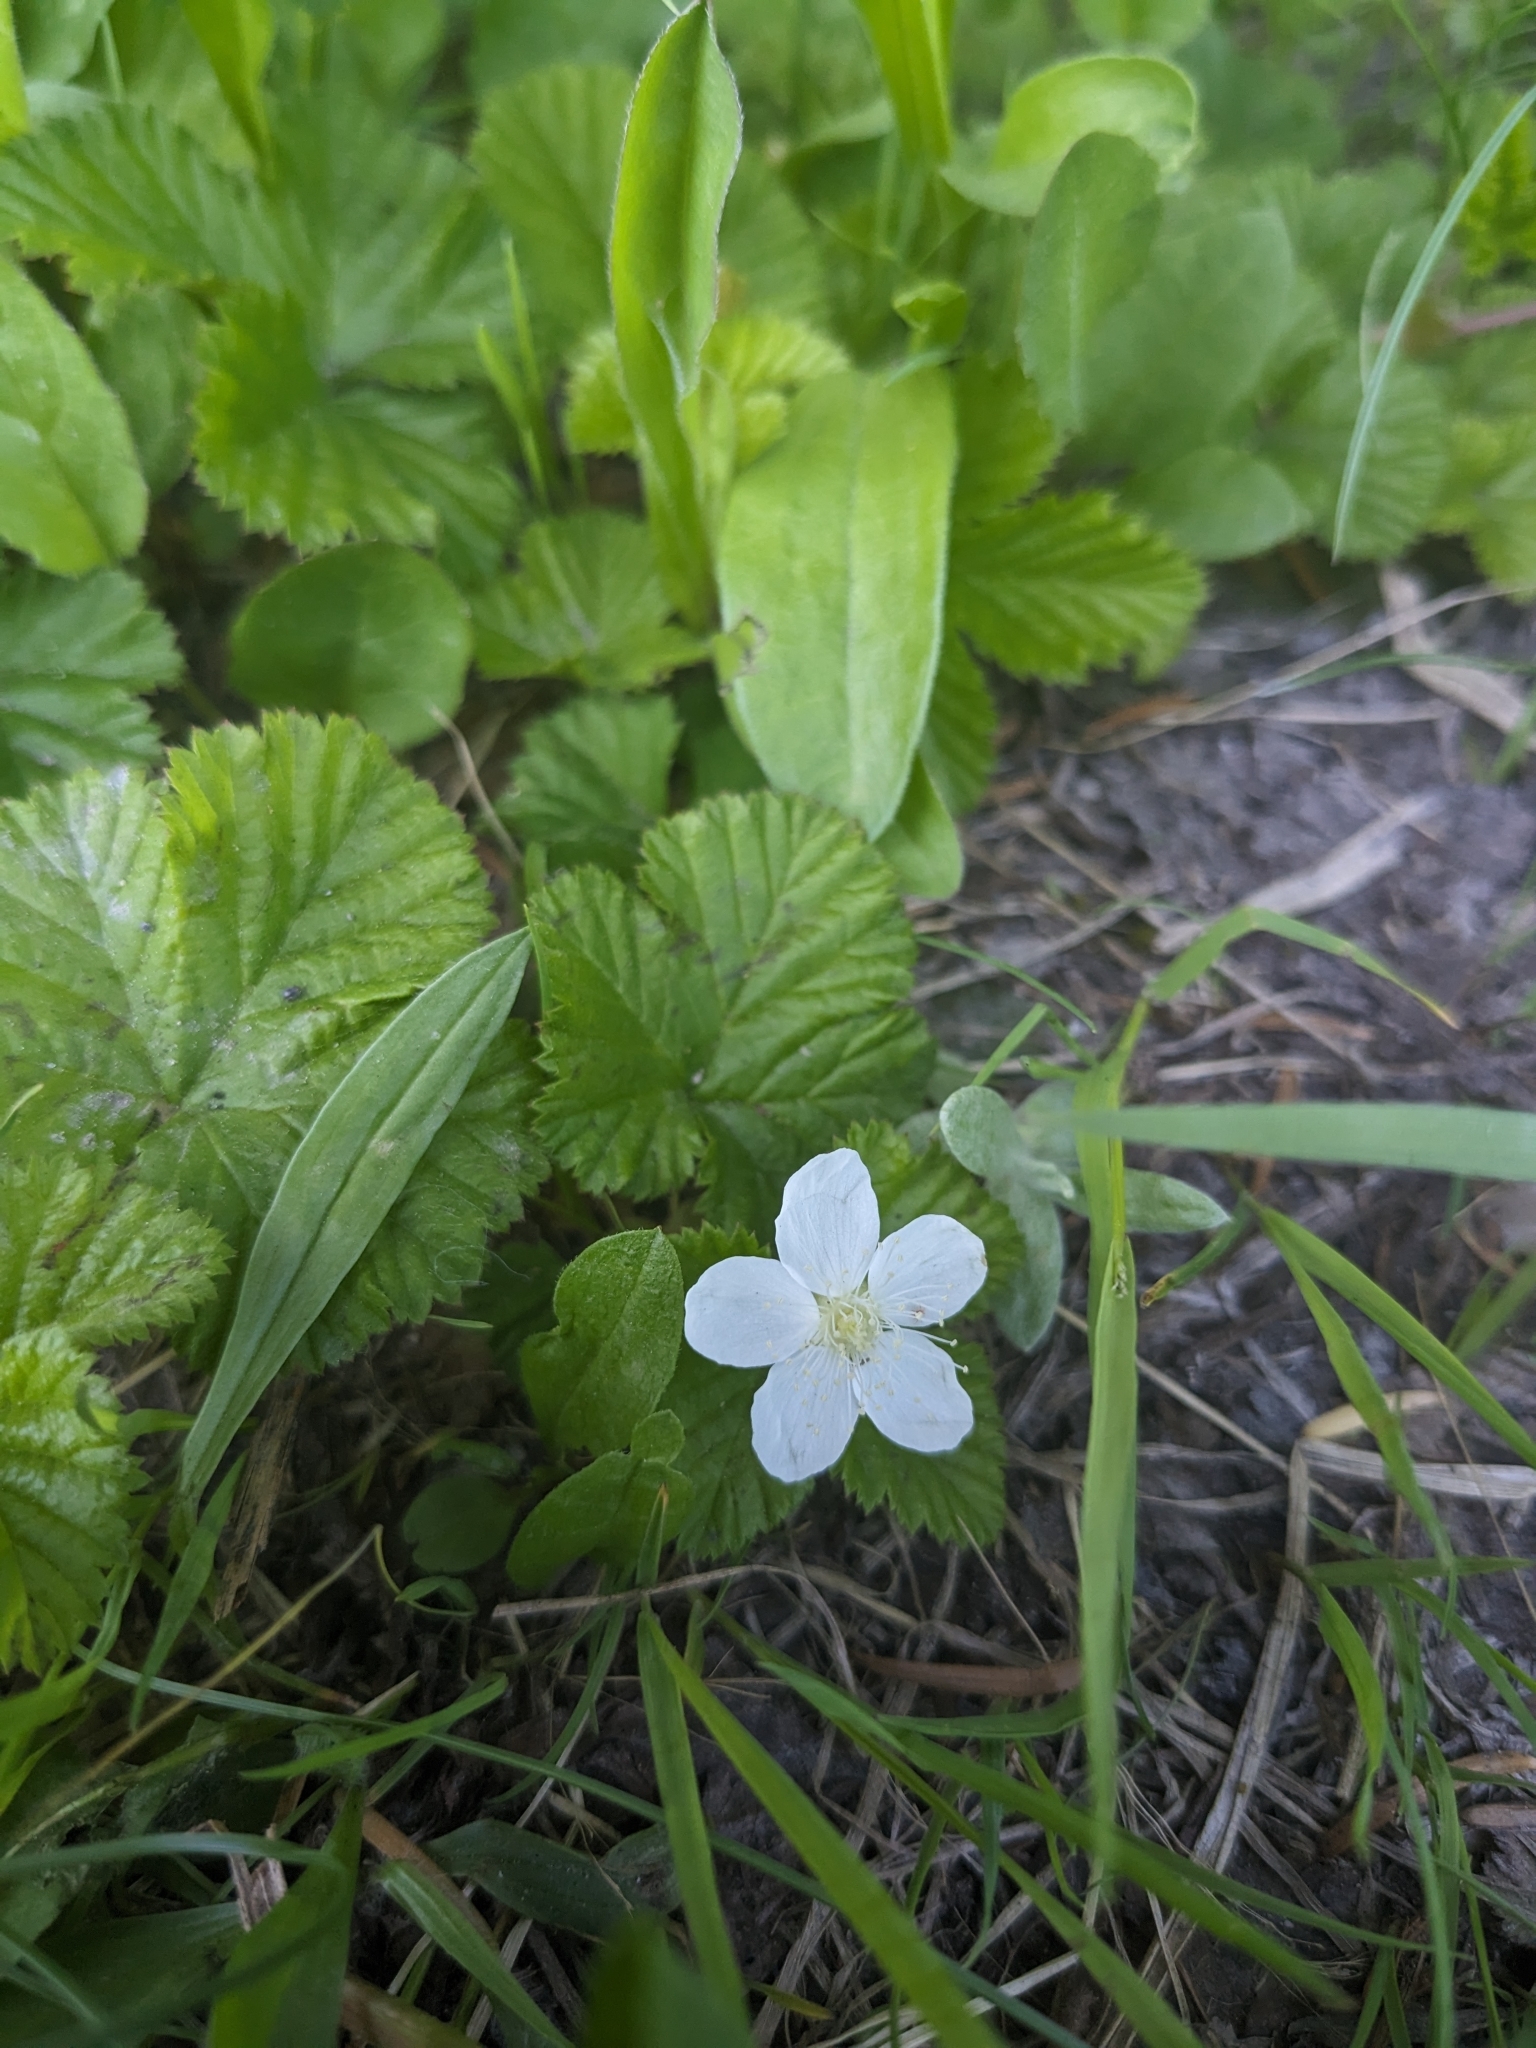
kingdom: Plantae
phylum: Tracheophyta
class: Magnoliopsida
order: Rosales
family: Rosaceae
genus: Rubus
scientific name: Rubus lasiococcus
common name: Dwarf bramble
